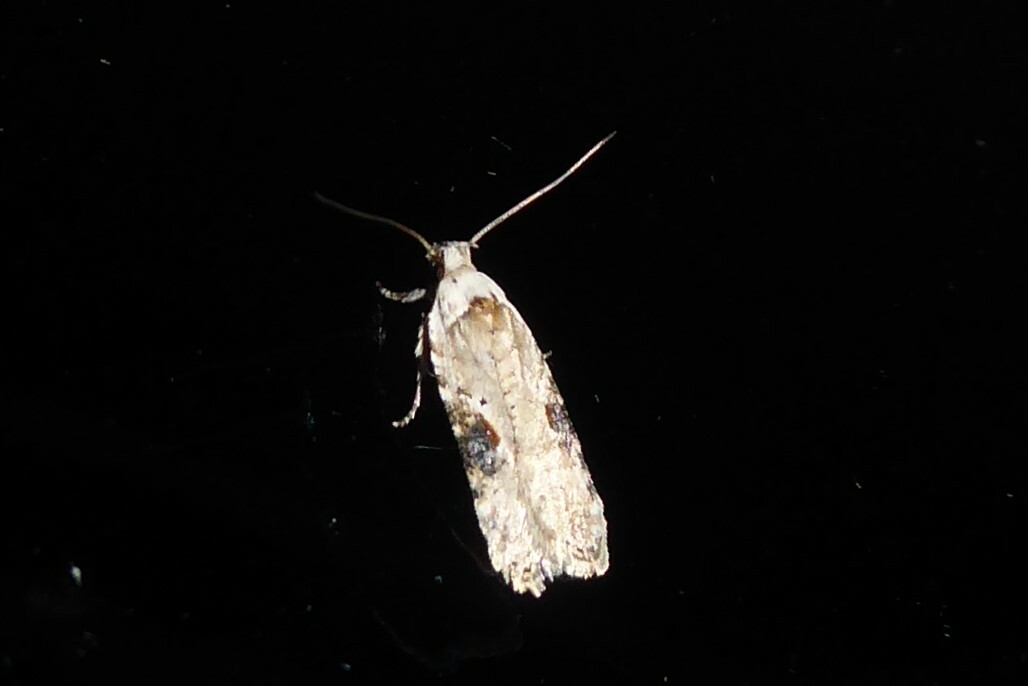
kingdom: Animalia
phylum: Arthropoda
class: Insecta
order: Lepidoptera
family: Depressariidae
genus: Agonopterix
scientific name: Agonopterix alstroemeriana
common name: Moth
